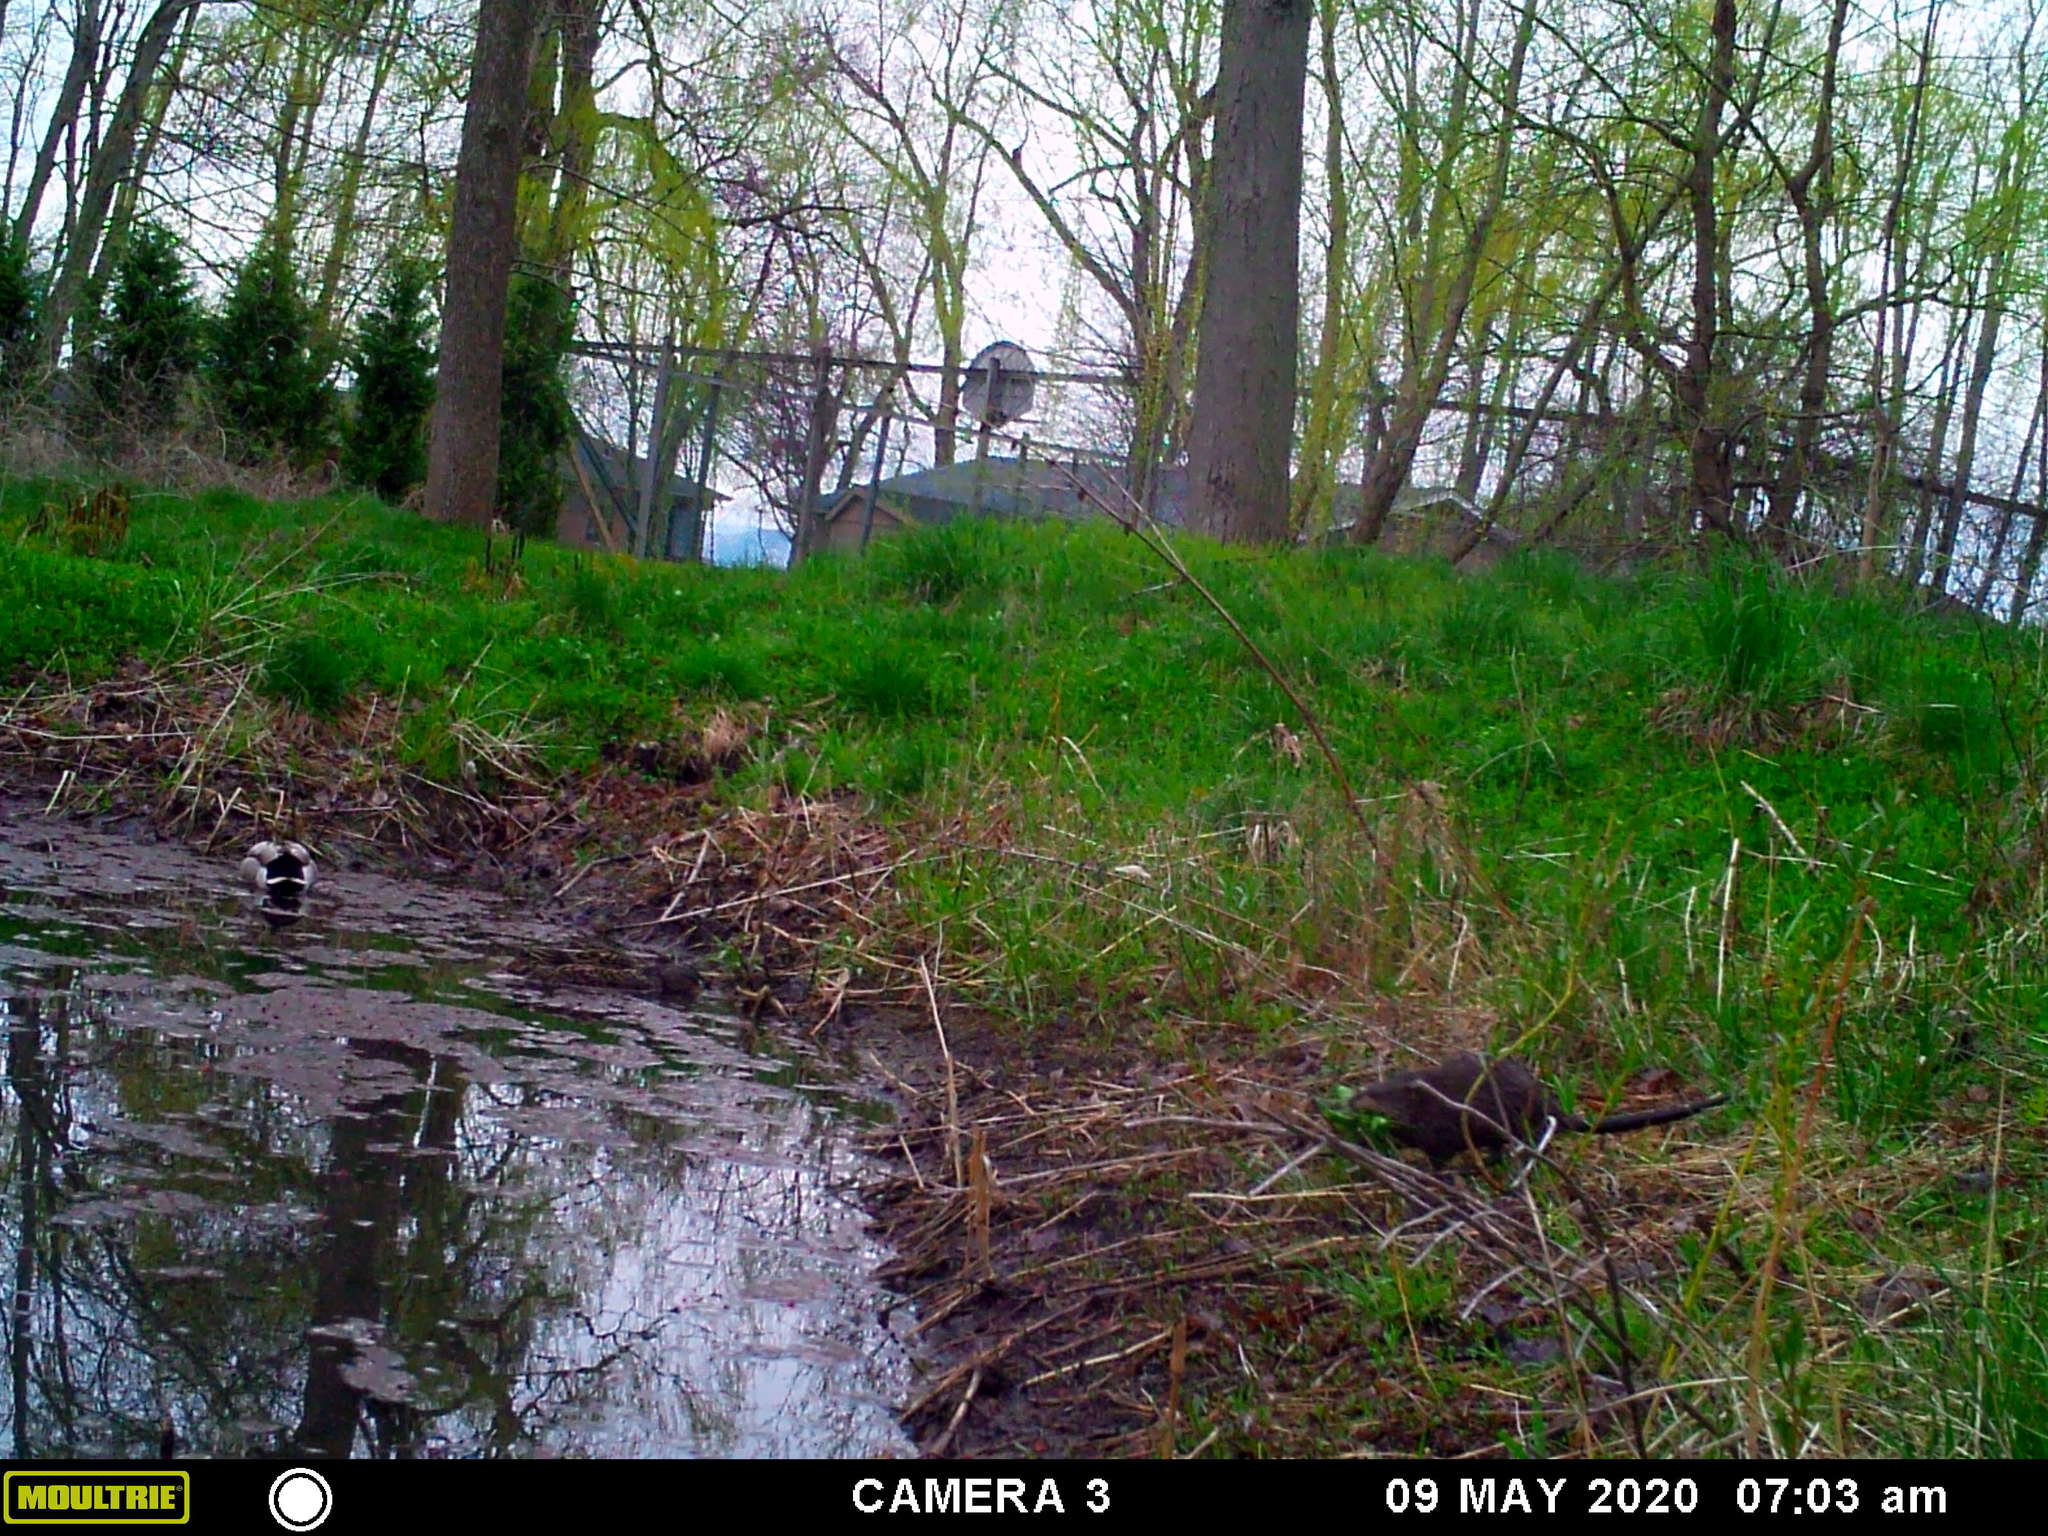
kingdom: Animalia
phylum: Chordata
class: Mammalia
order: Rodentia
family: Cricetidae
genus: Ondatra
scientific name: Ondatra zibethicus
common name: Muskrat
